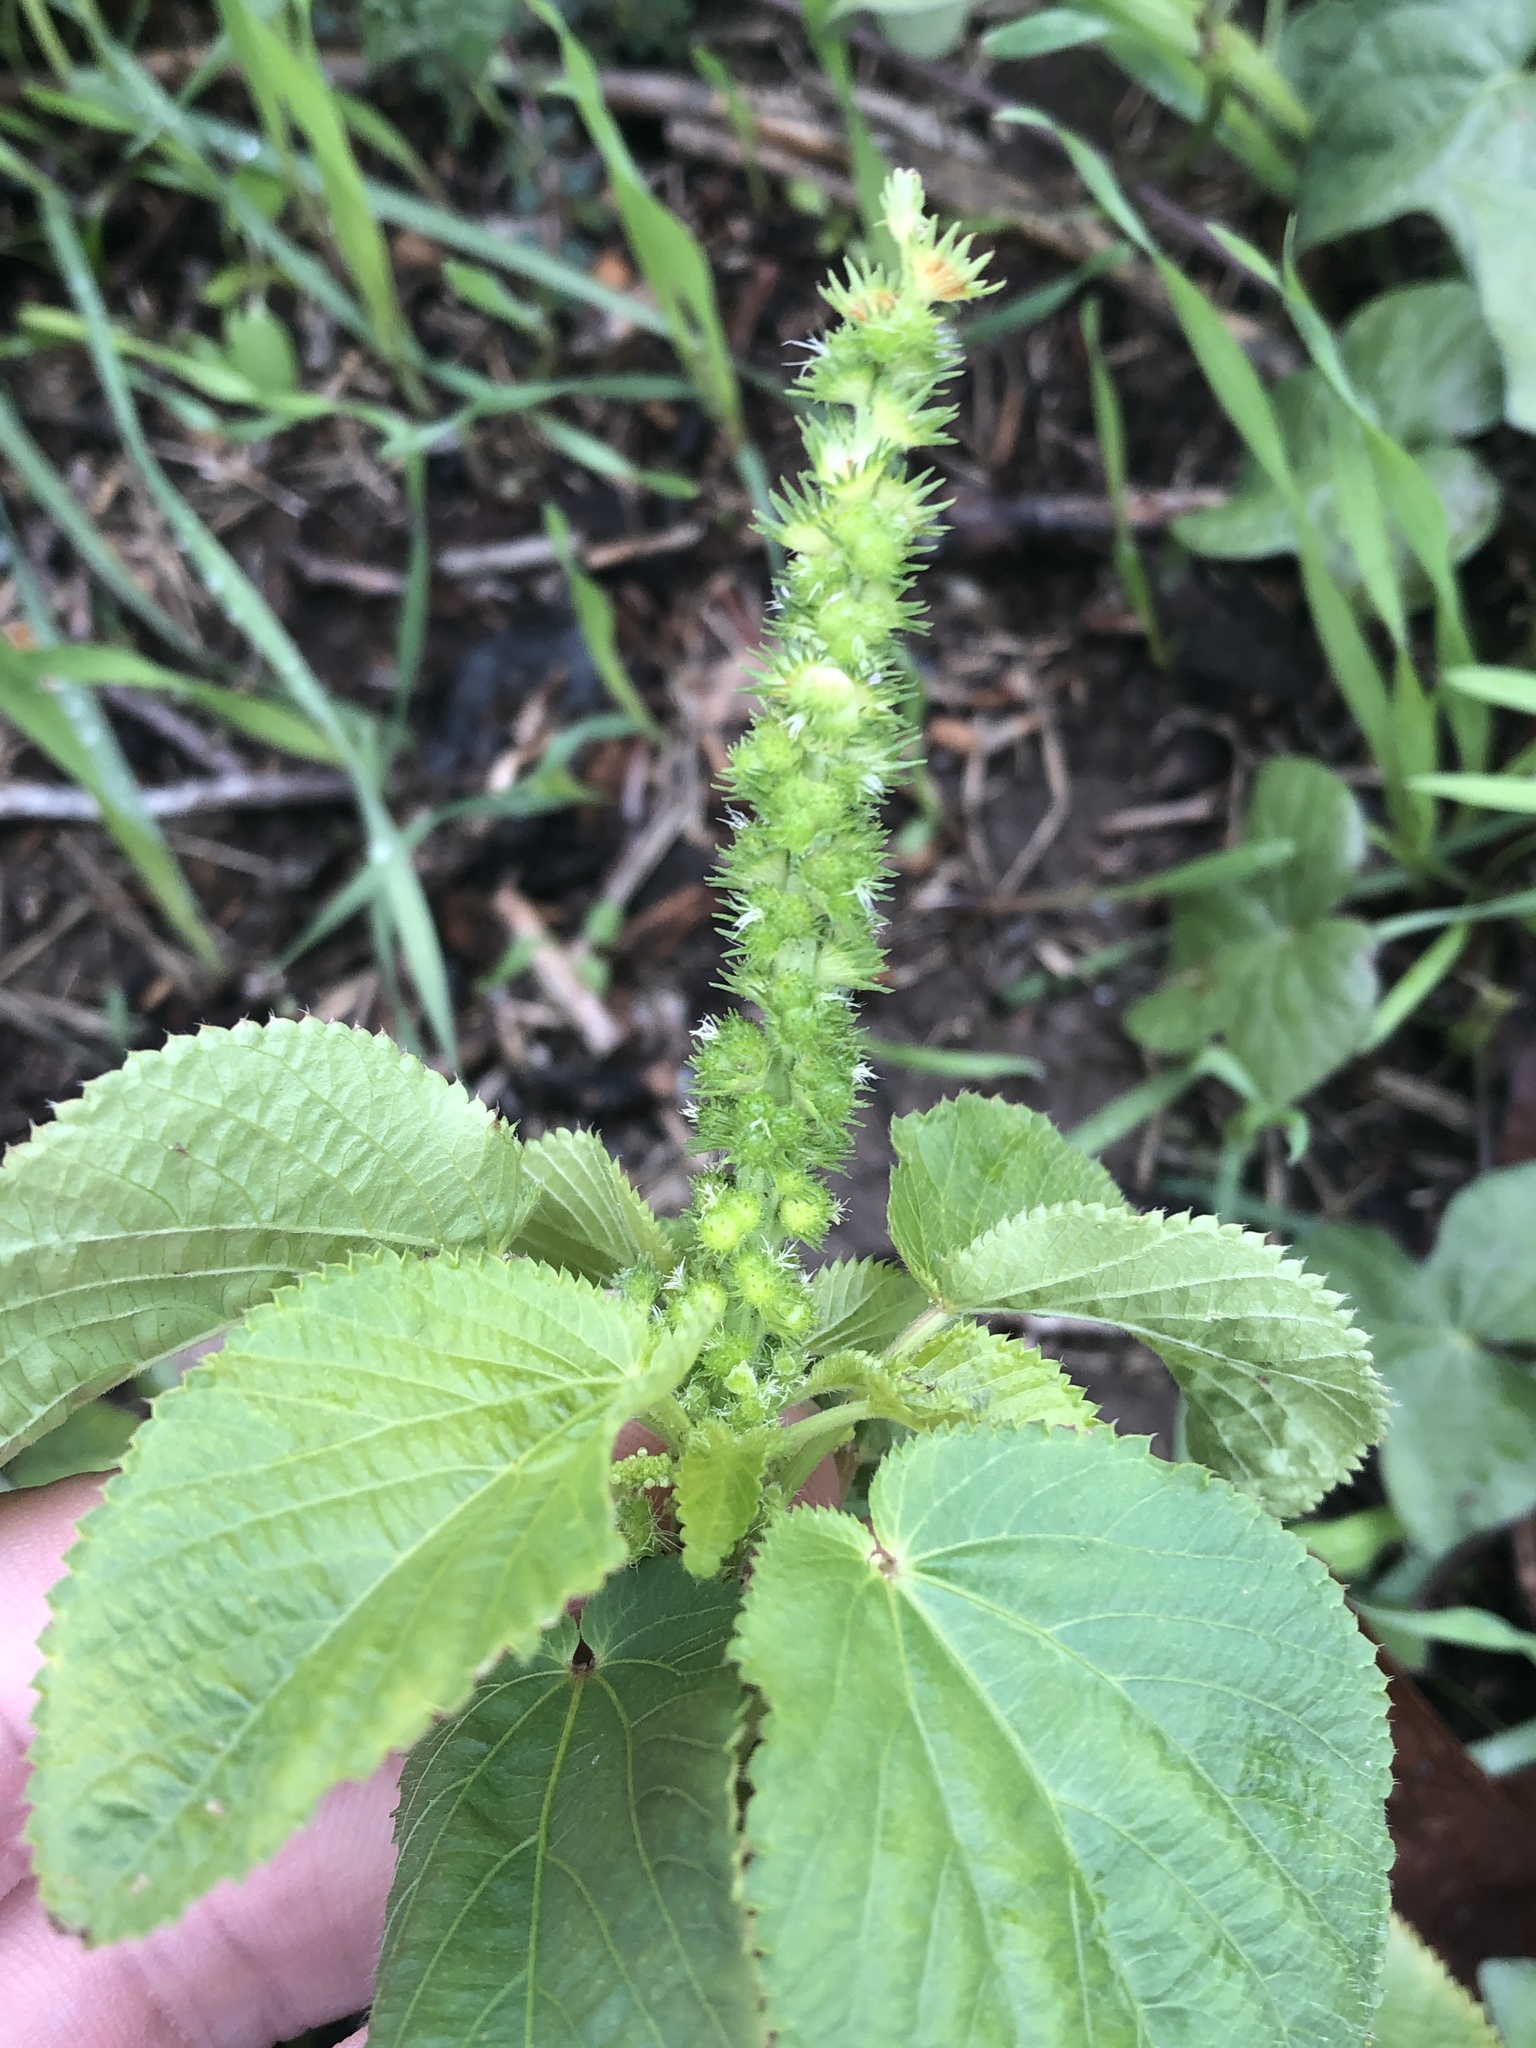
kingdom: Plantae
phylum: Tracheophyta
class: Magnoliopsida
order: Malpighiales
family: Euphorbiaceae
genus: Acalypha
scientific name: Acalypha ostryifolia
